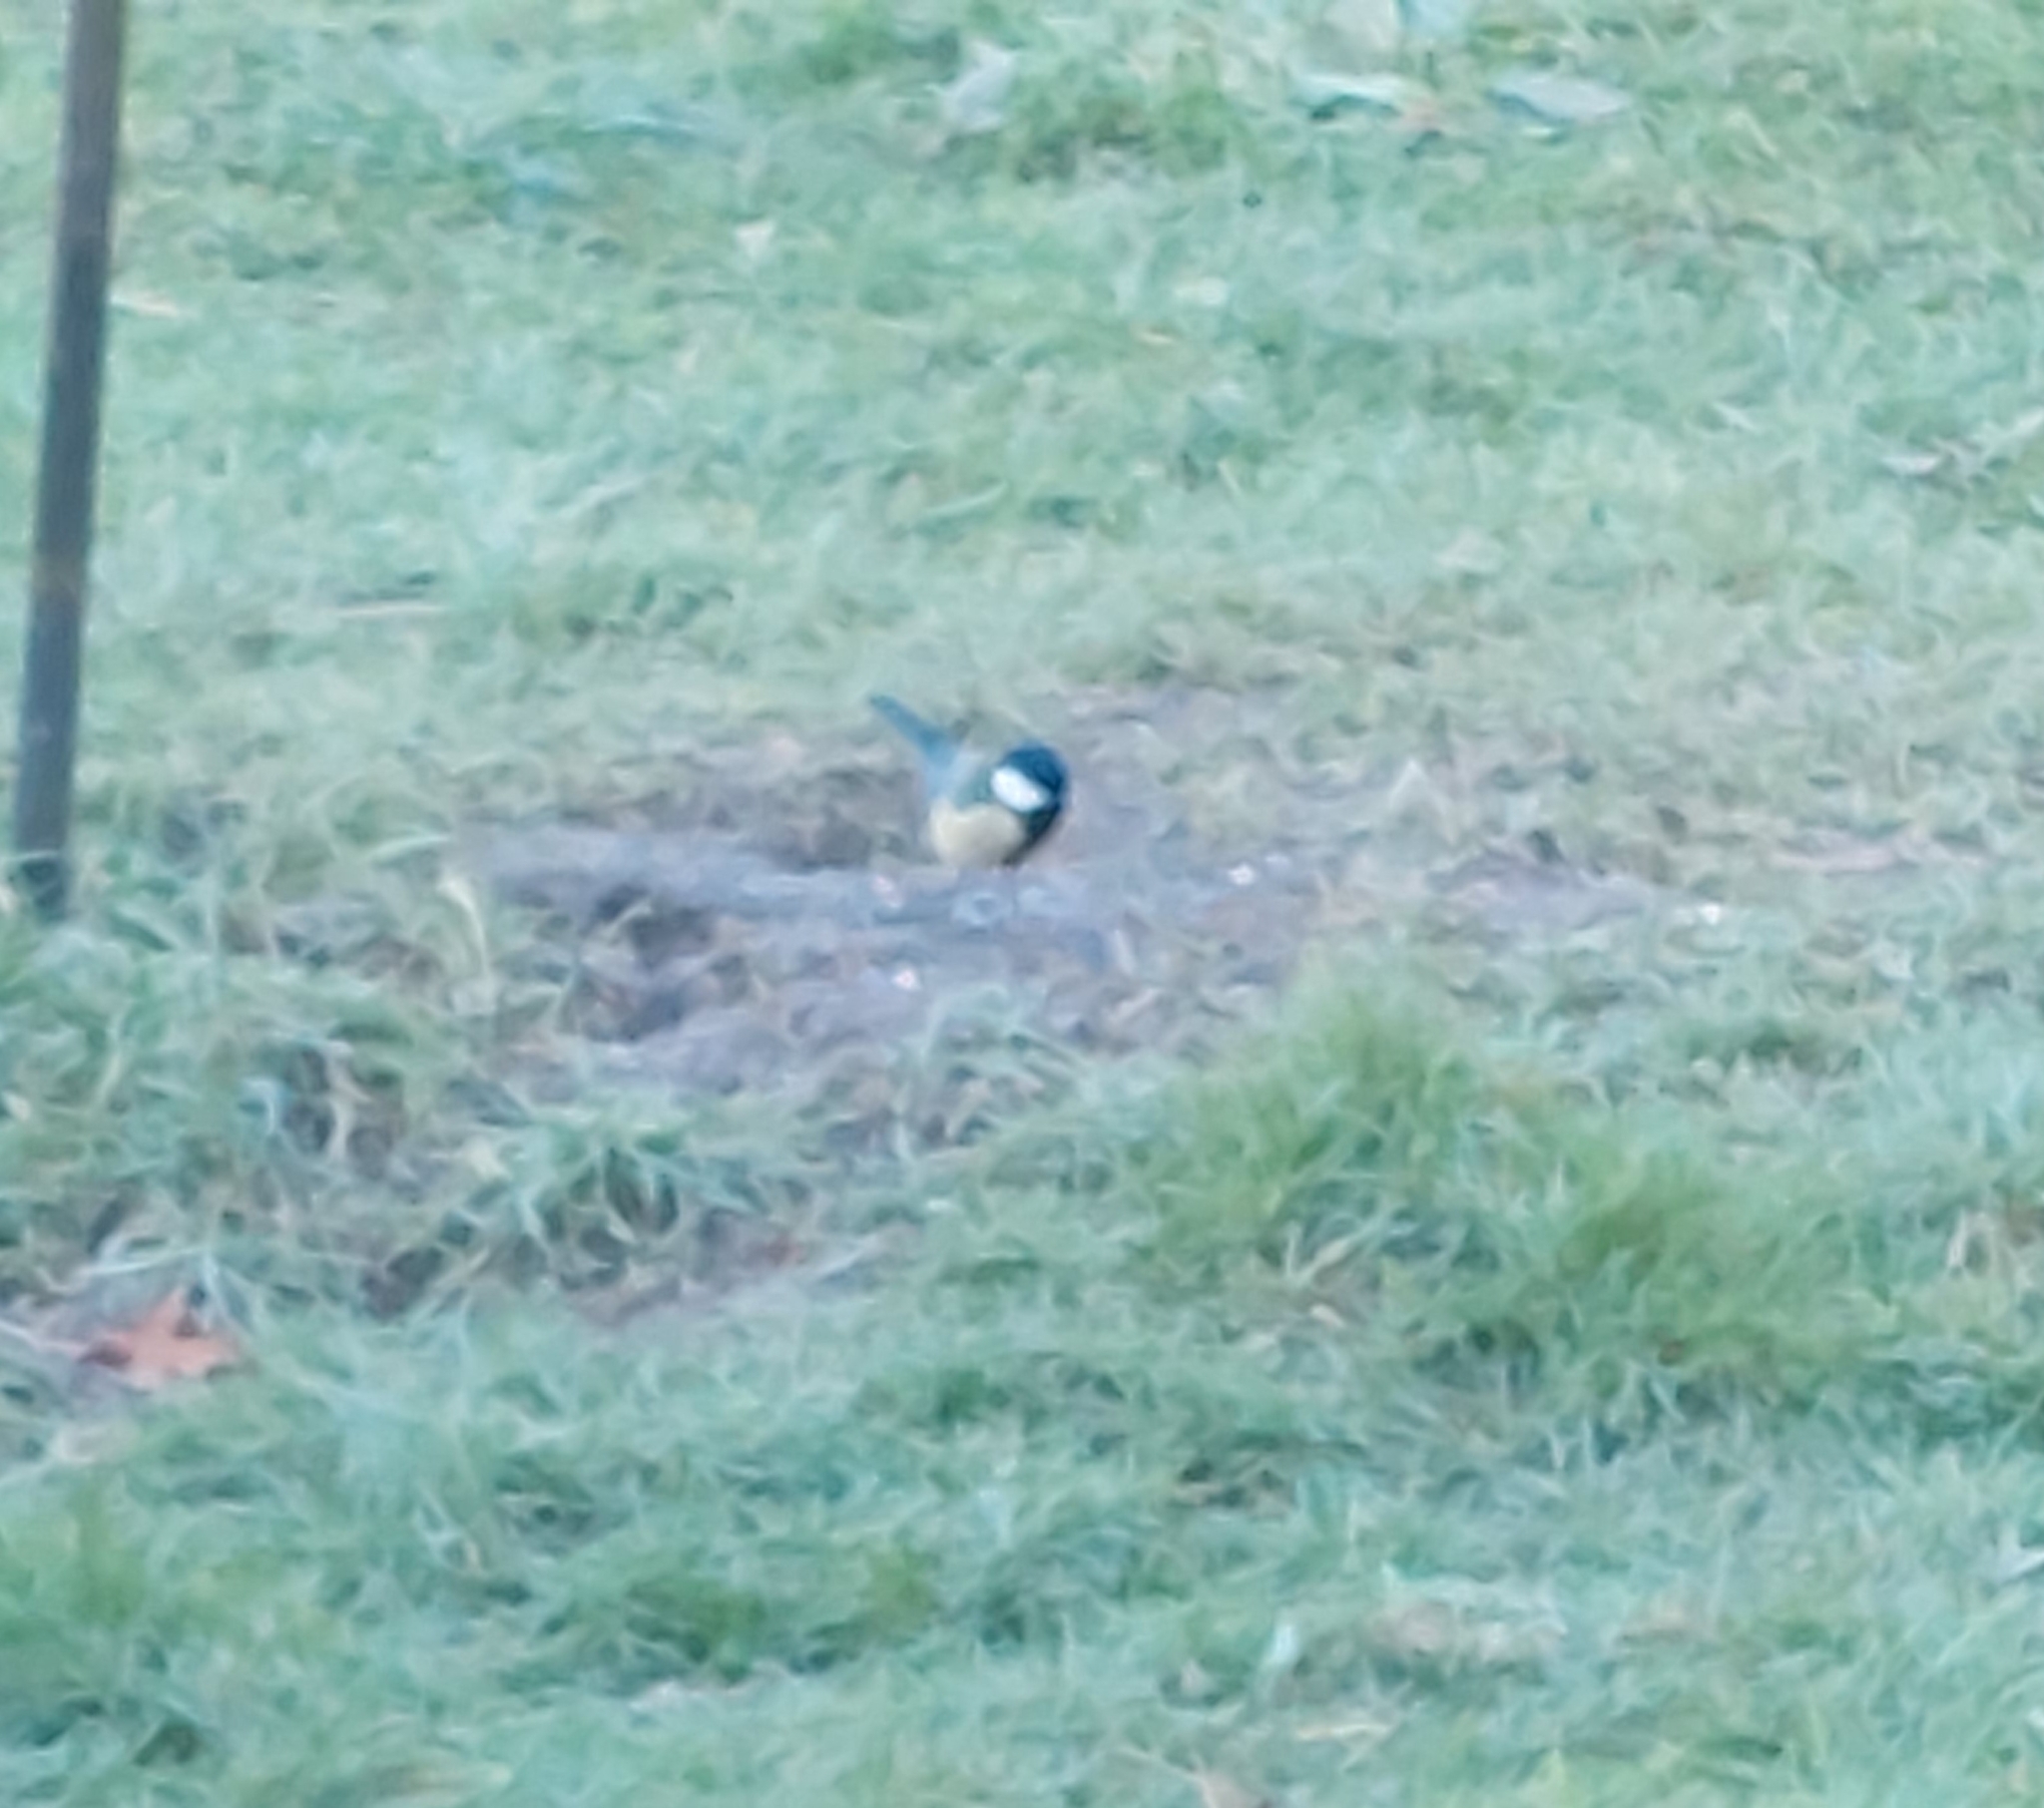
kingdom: Animalia
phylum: Chordata
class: Aves
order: Passeriformes
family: Paridae
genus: Parus
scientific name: Parus major
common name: Great tit
